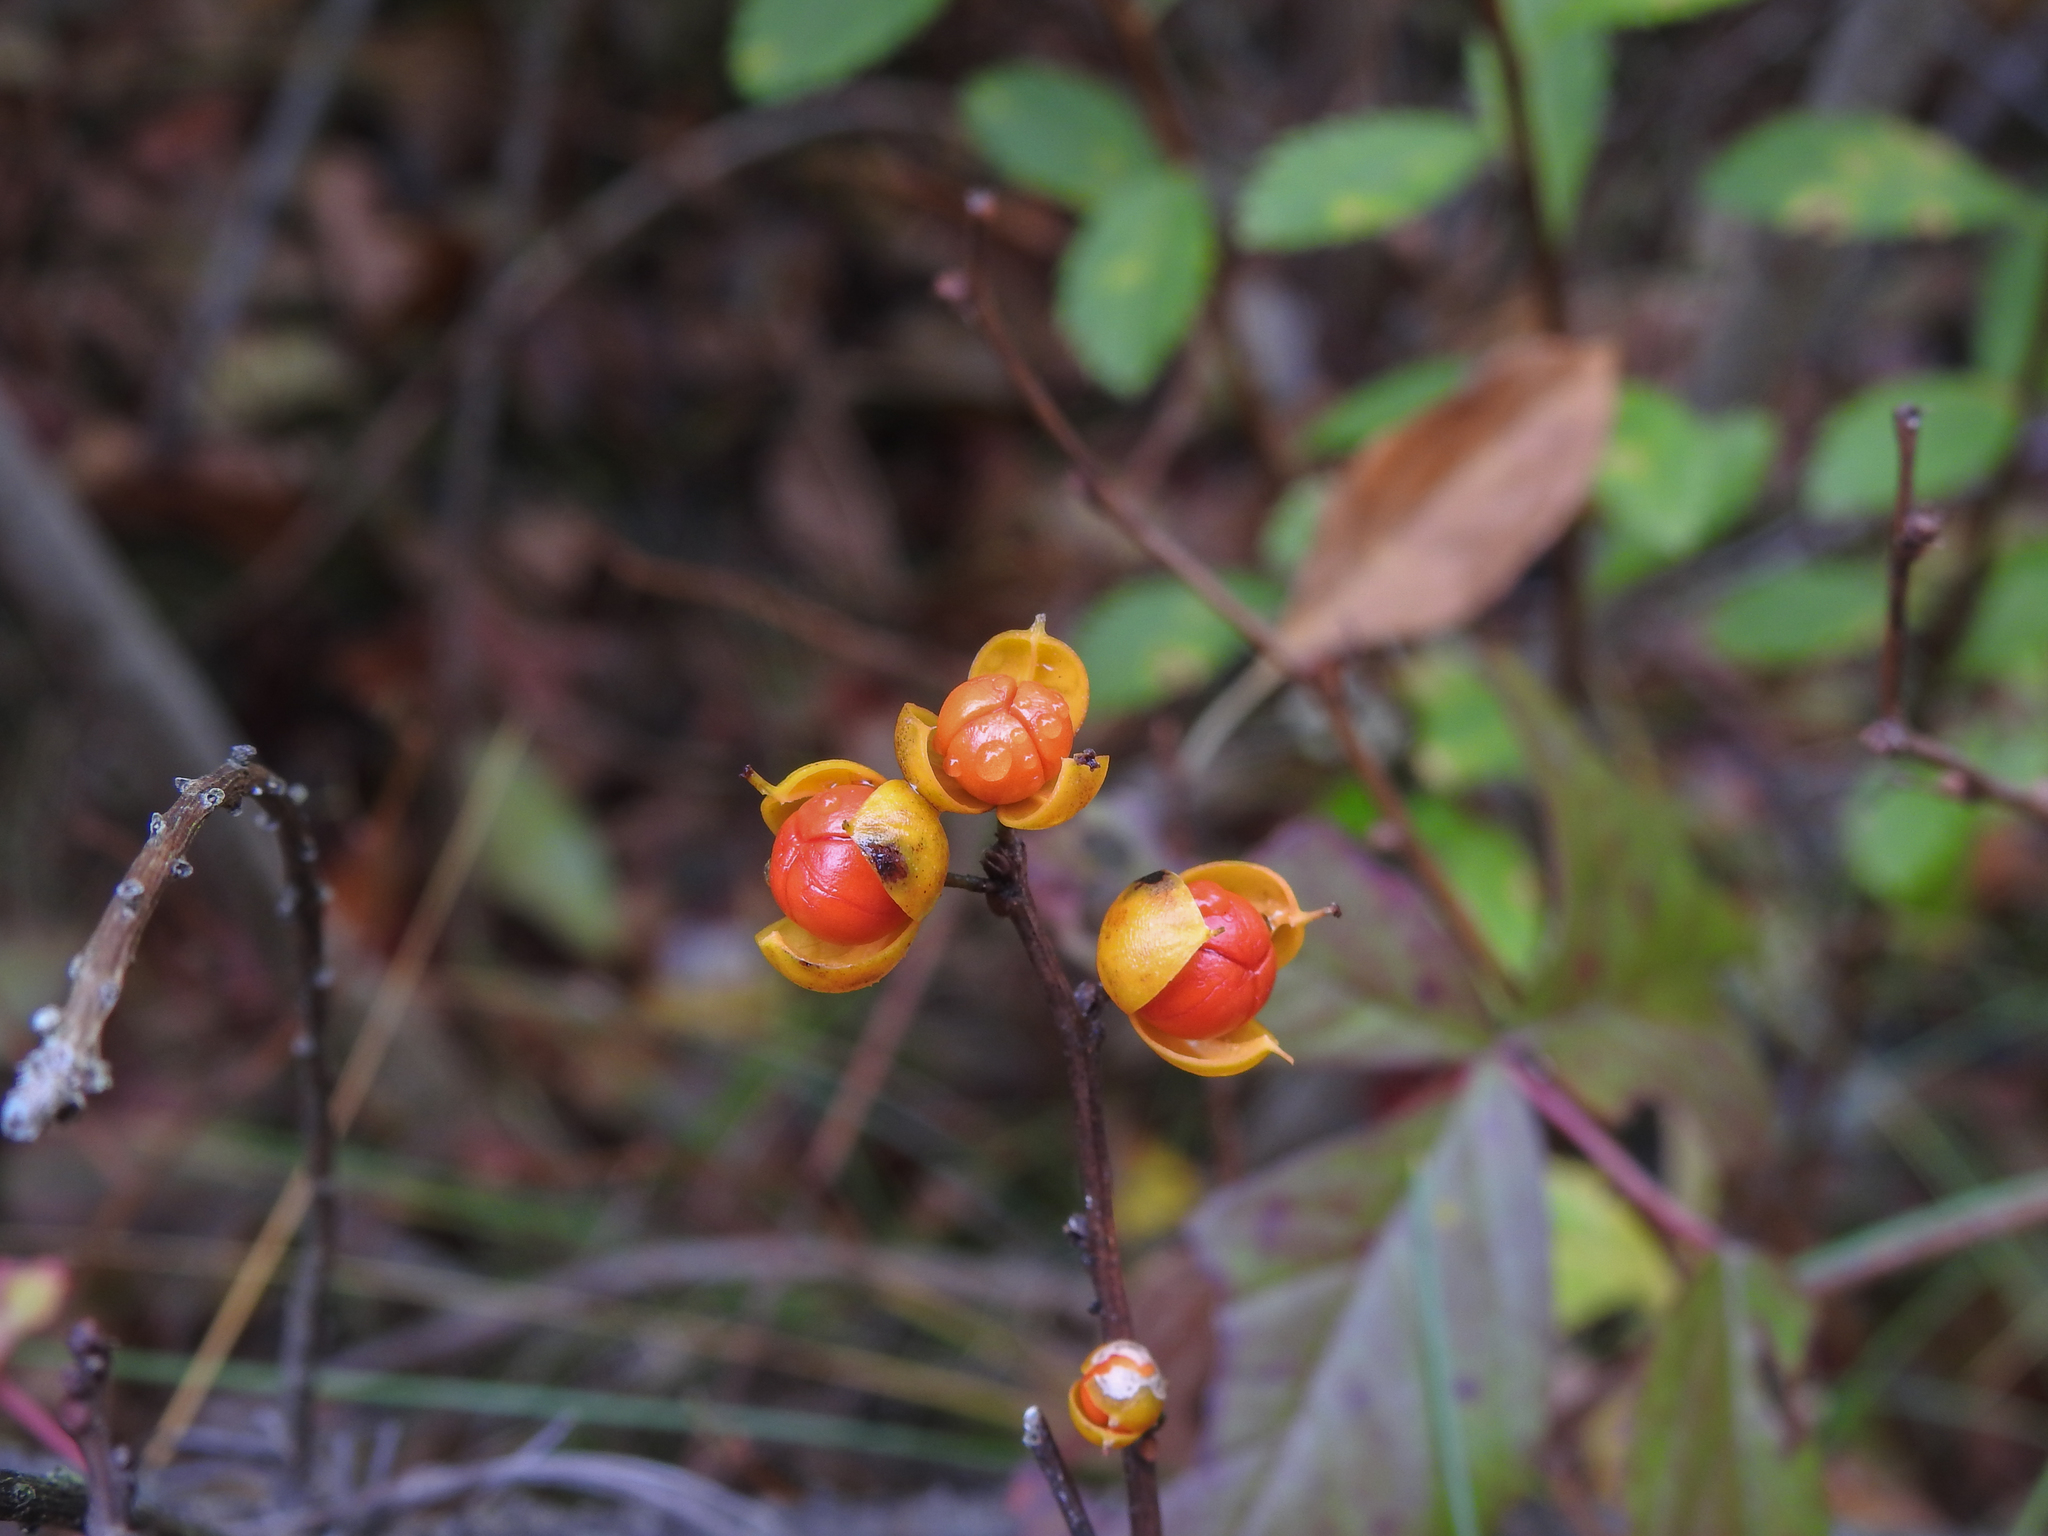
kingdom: Plantae
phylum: Tracheophyta
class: Magnoliopsida
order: Celastrales
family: Celastraceae
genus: Celastrus
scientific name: Celastrus orbiculatus
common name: Oriental bittersweet
